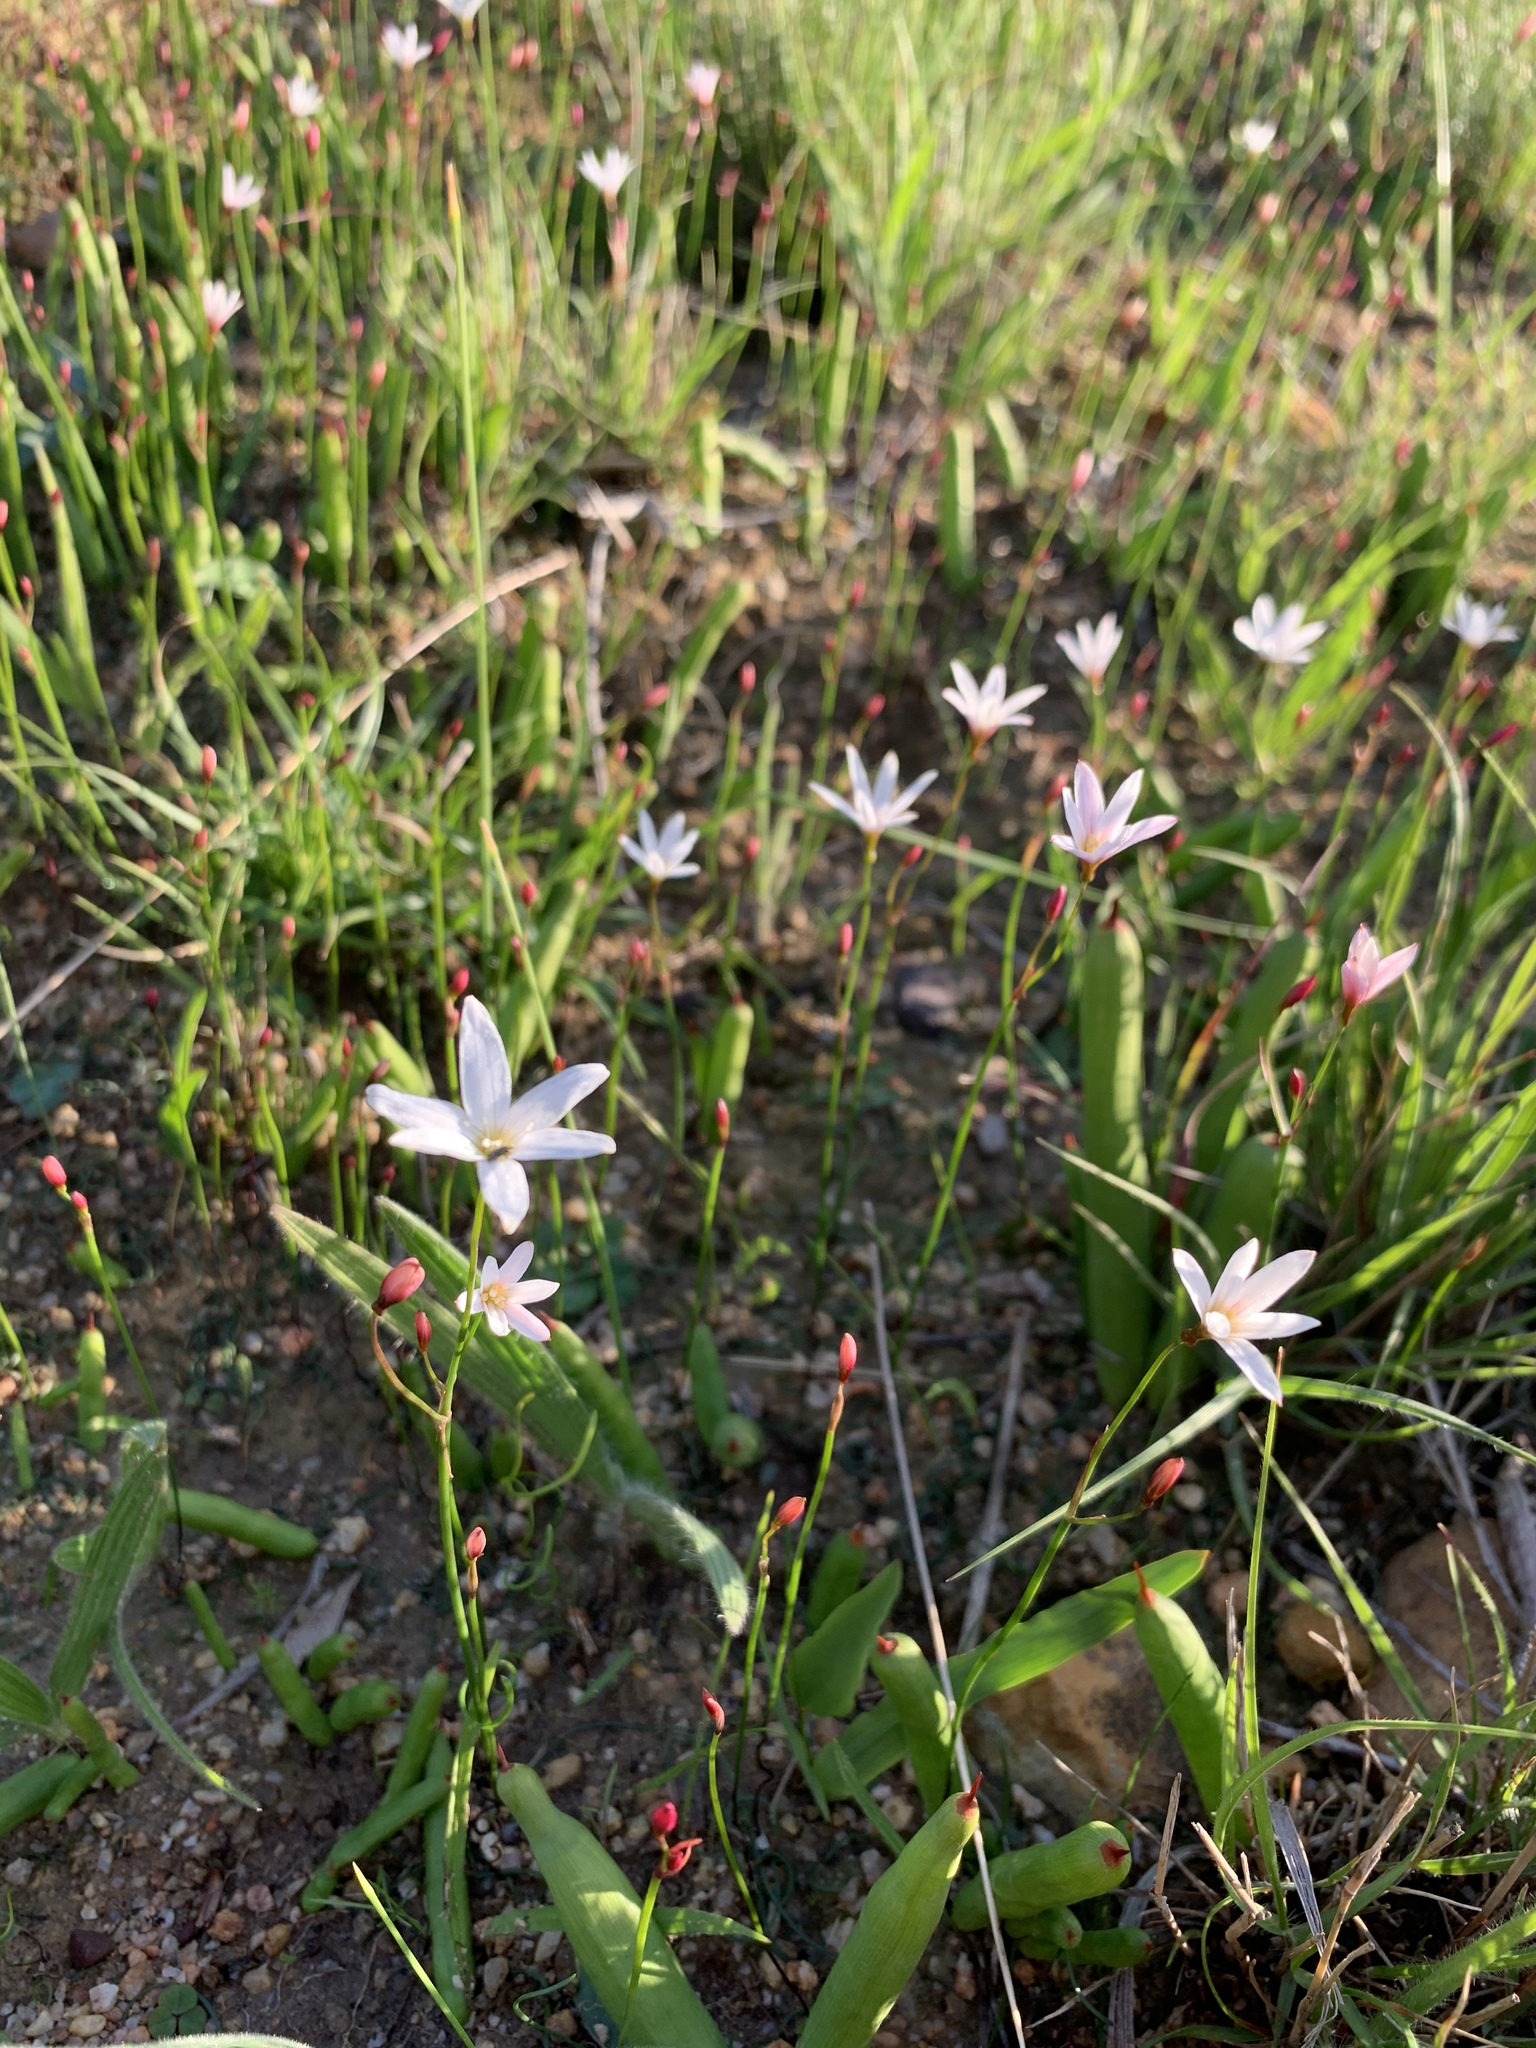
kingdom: Plantae
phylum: Tracheophyta
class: Liliopsida
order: Asparagales
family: Amaryllidaceae
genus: Strumaria
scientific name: Strumaria spiralis
